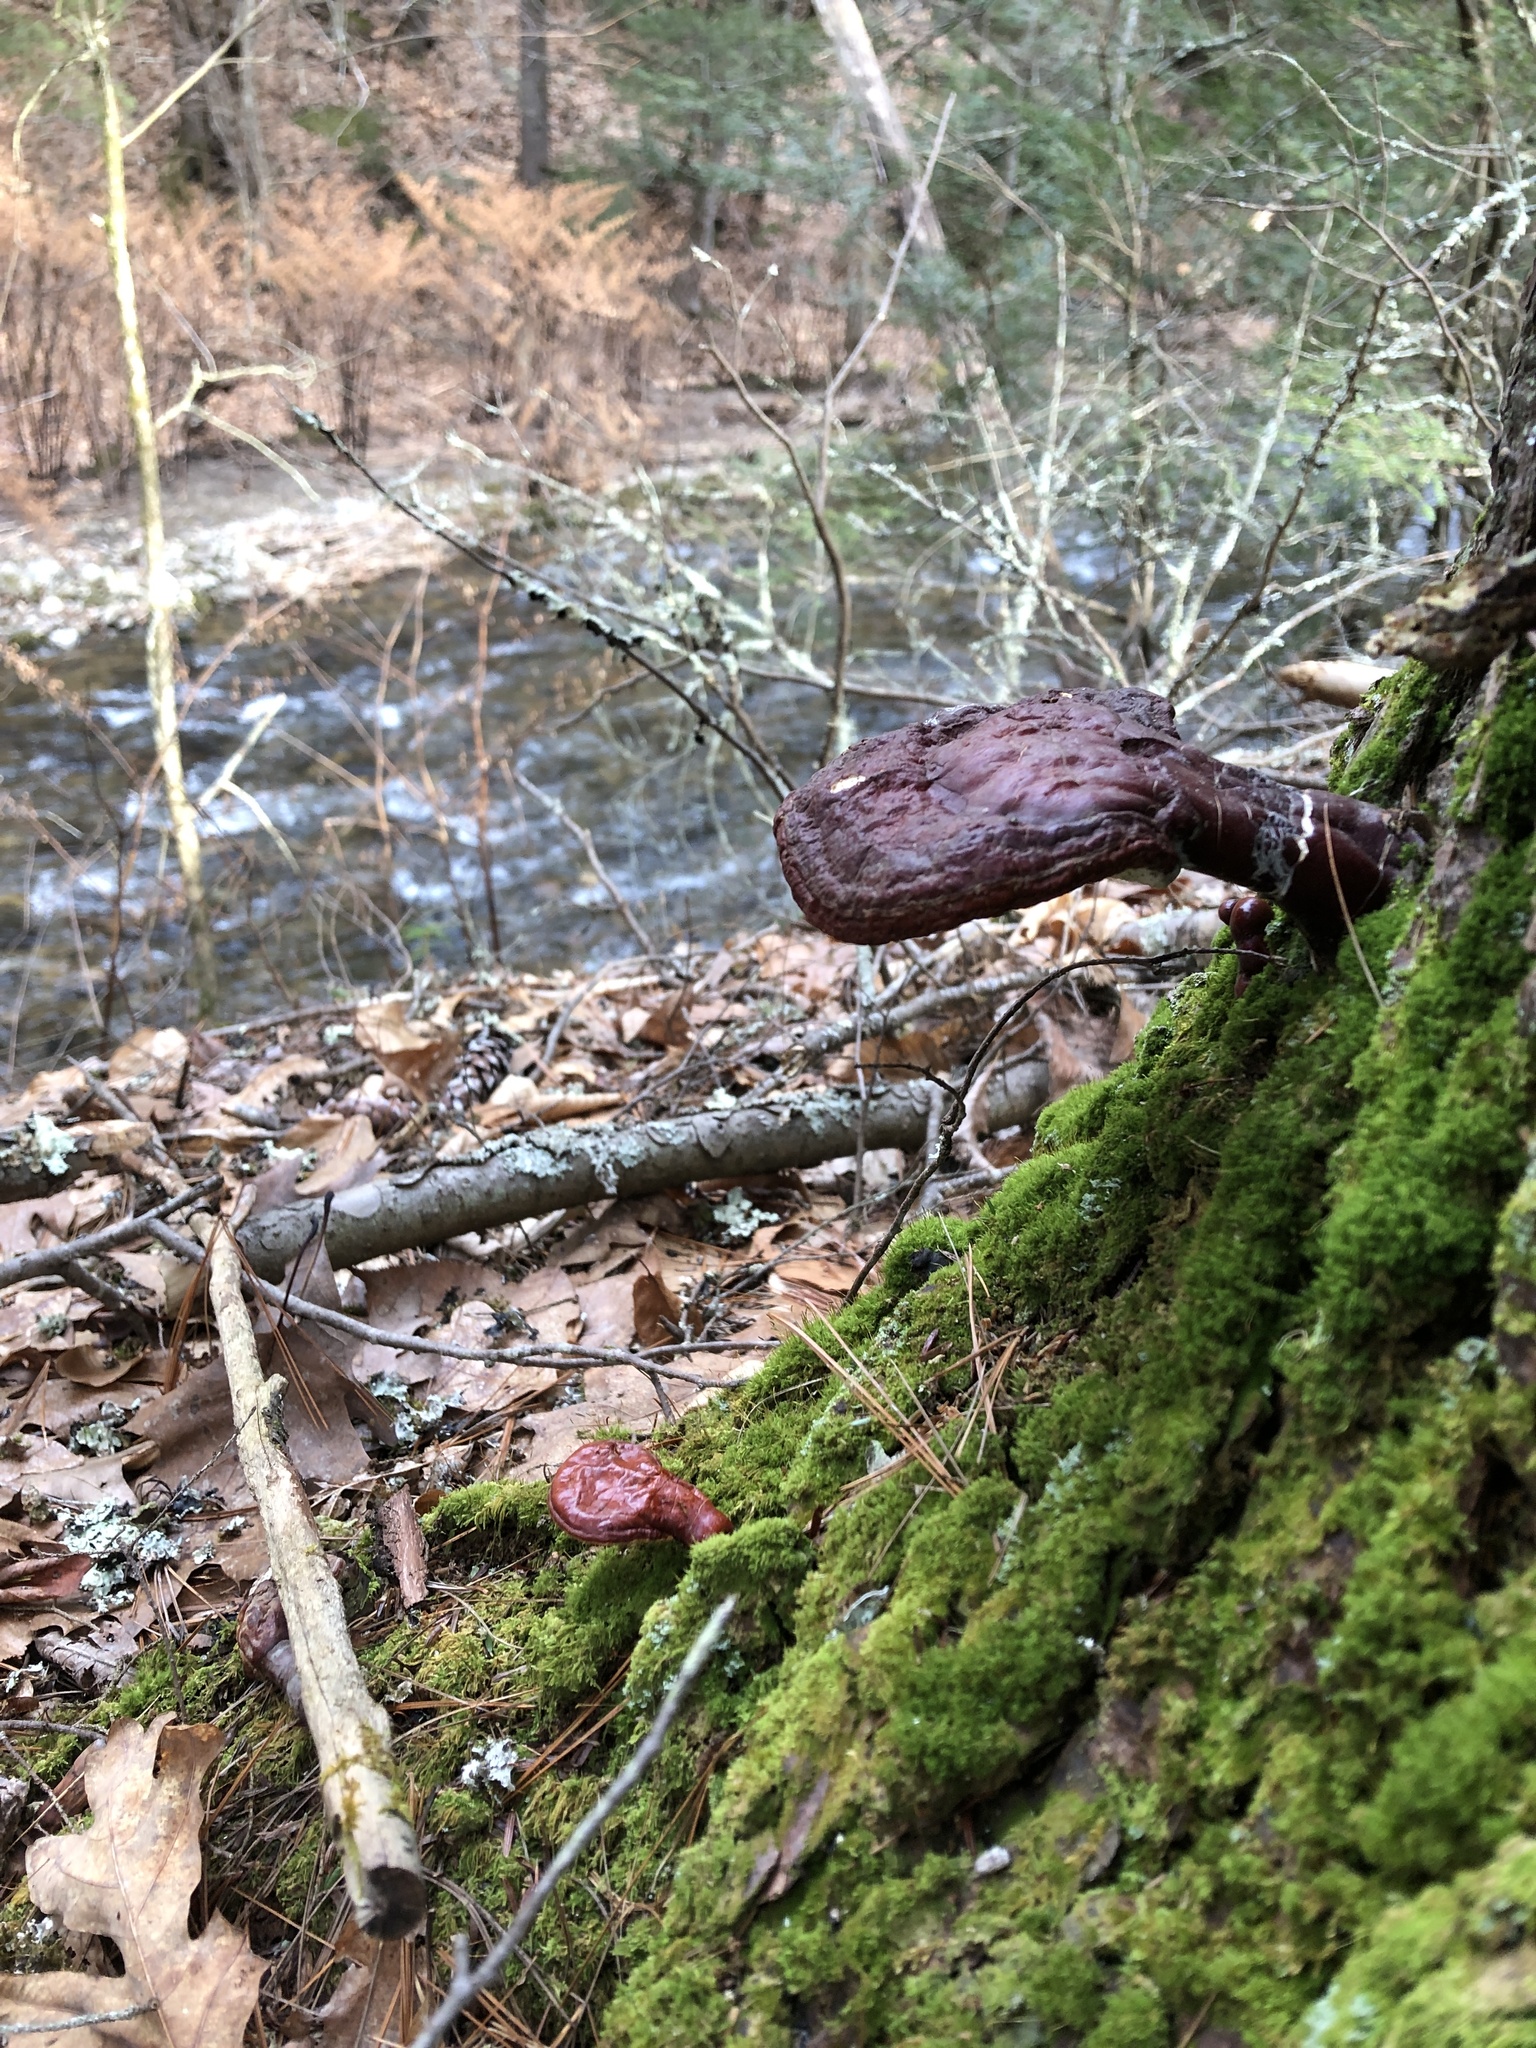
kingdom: Fungi
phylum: Basidiomycota
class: Agaricomycetes
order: Polyporales
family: Polyporaceae
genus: Ganoderma
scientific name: Ganoderma tsugae
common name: Hemlock varnish shelf
